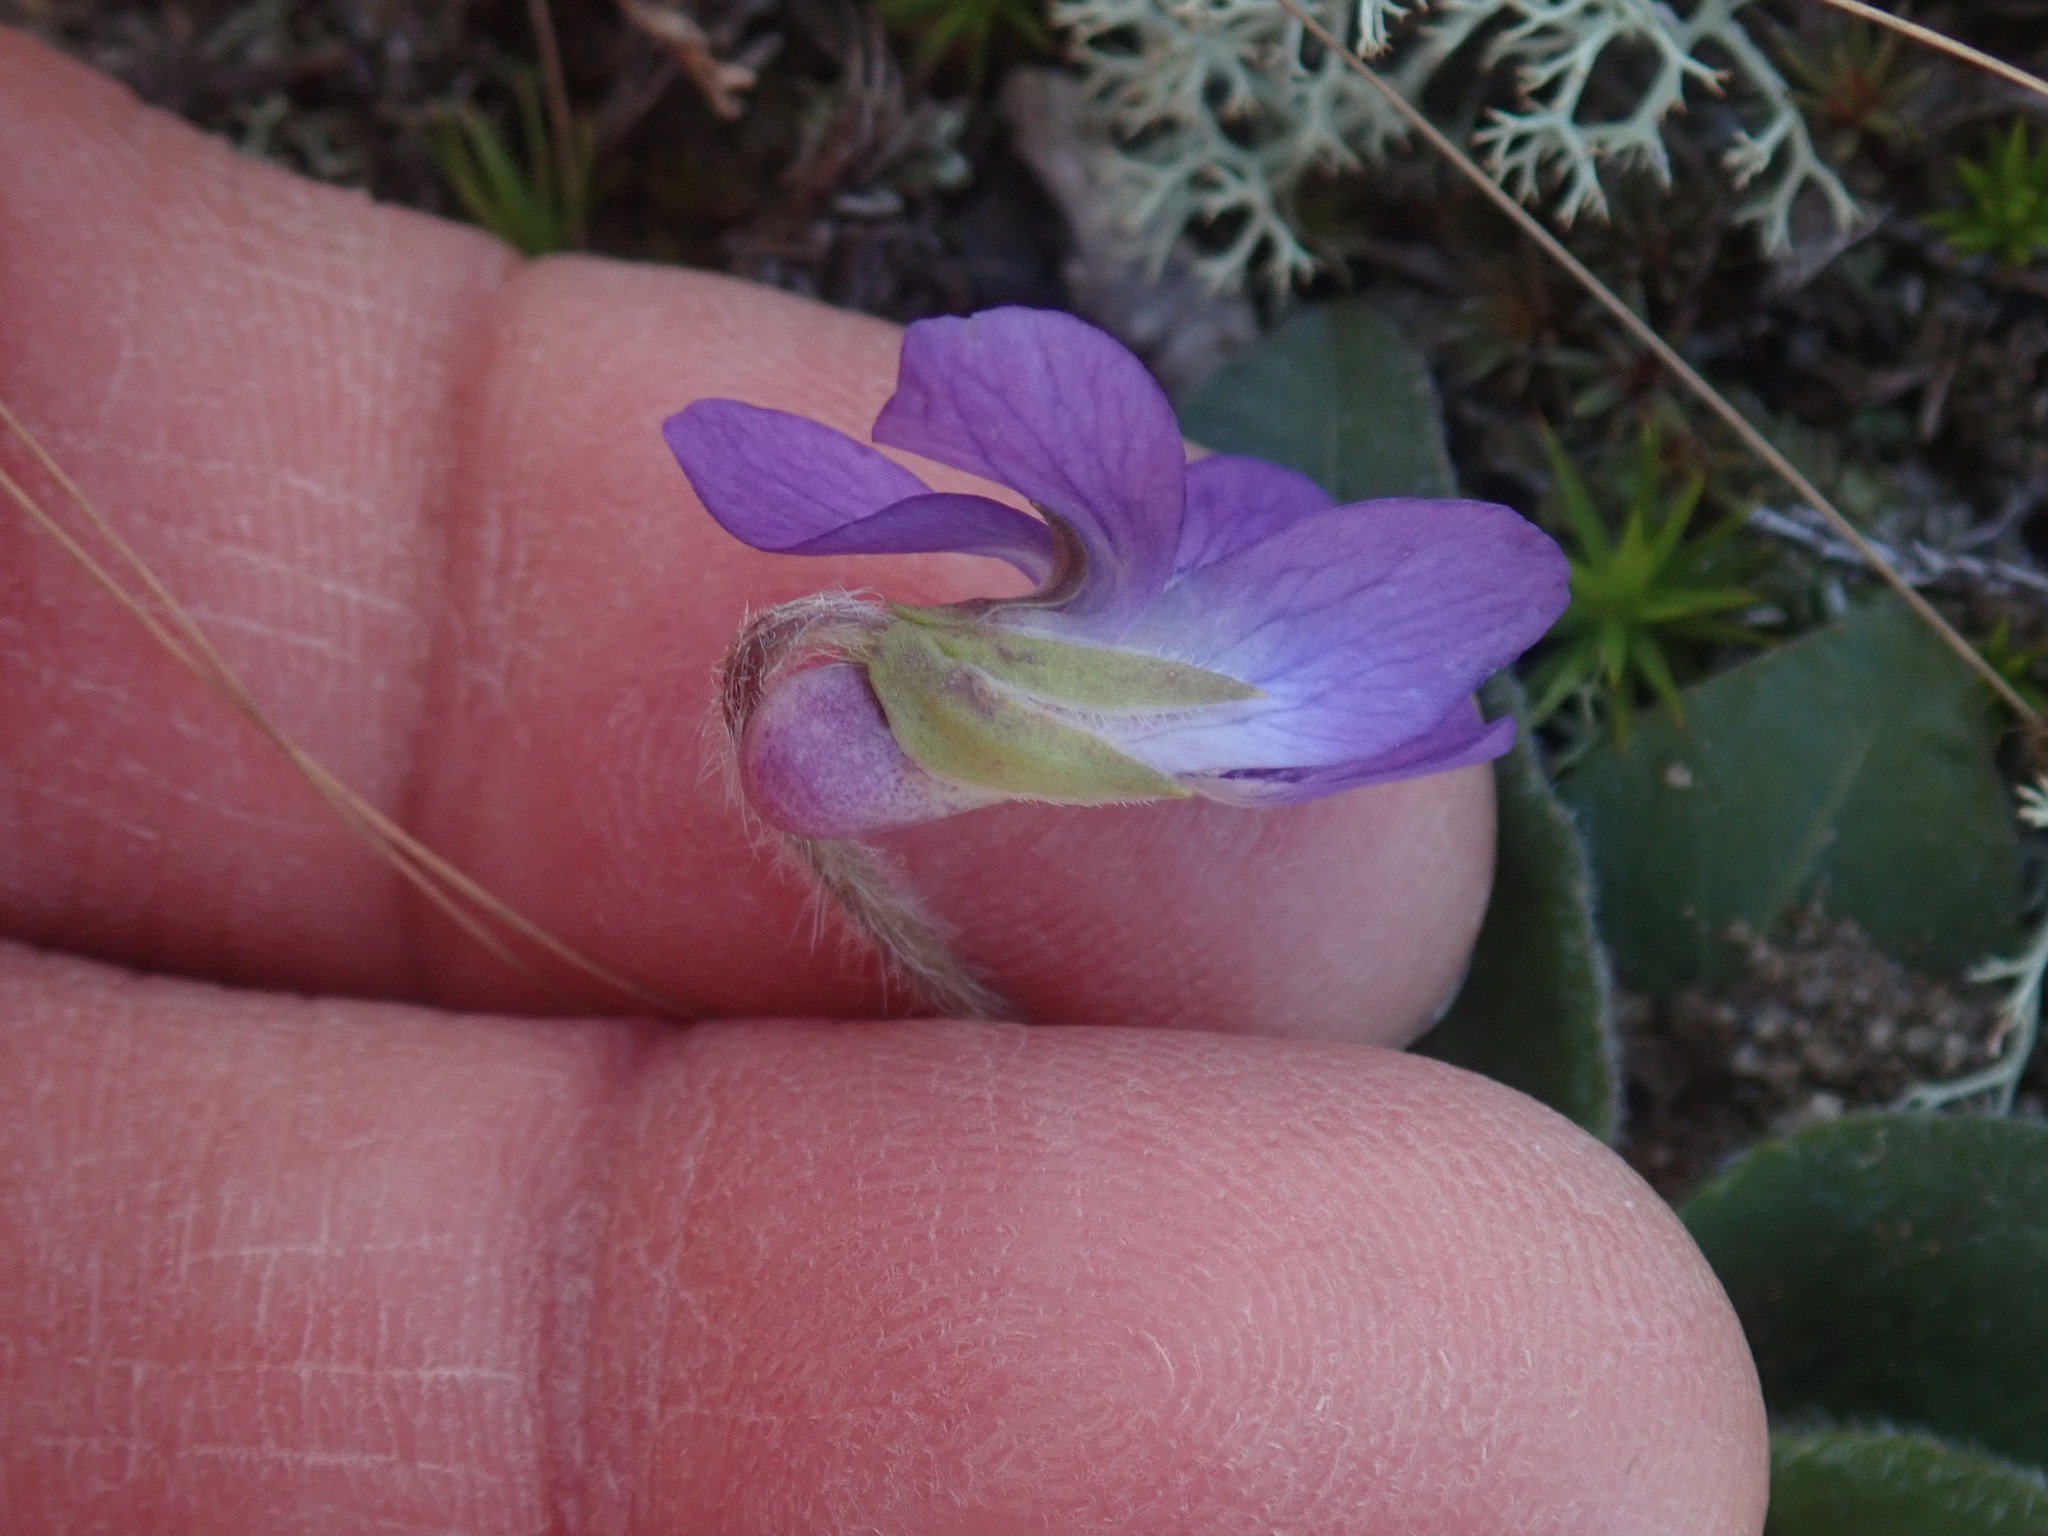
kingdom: Plantae
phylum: Tracheophyta
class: Magnoliopsida
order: Malpighiales
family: Violaceae
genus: Viola
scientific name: Viola sagittata
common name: Arrowhead violet
